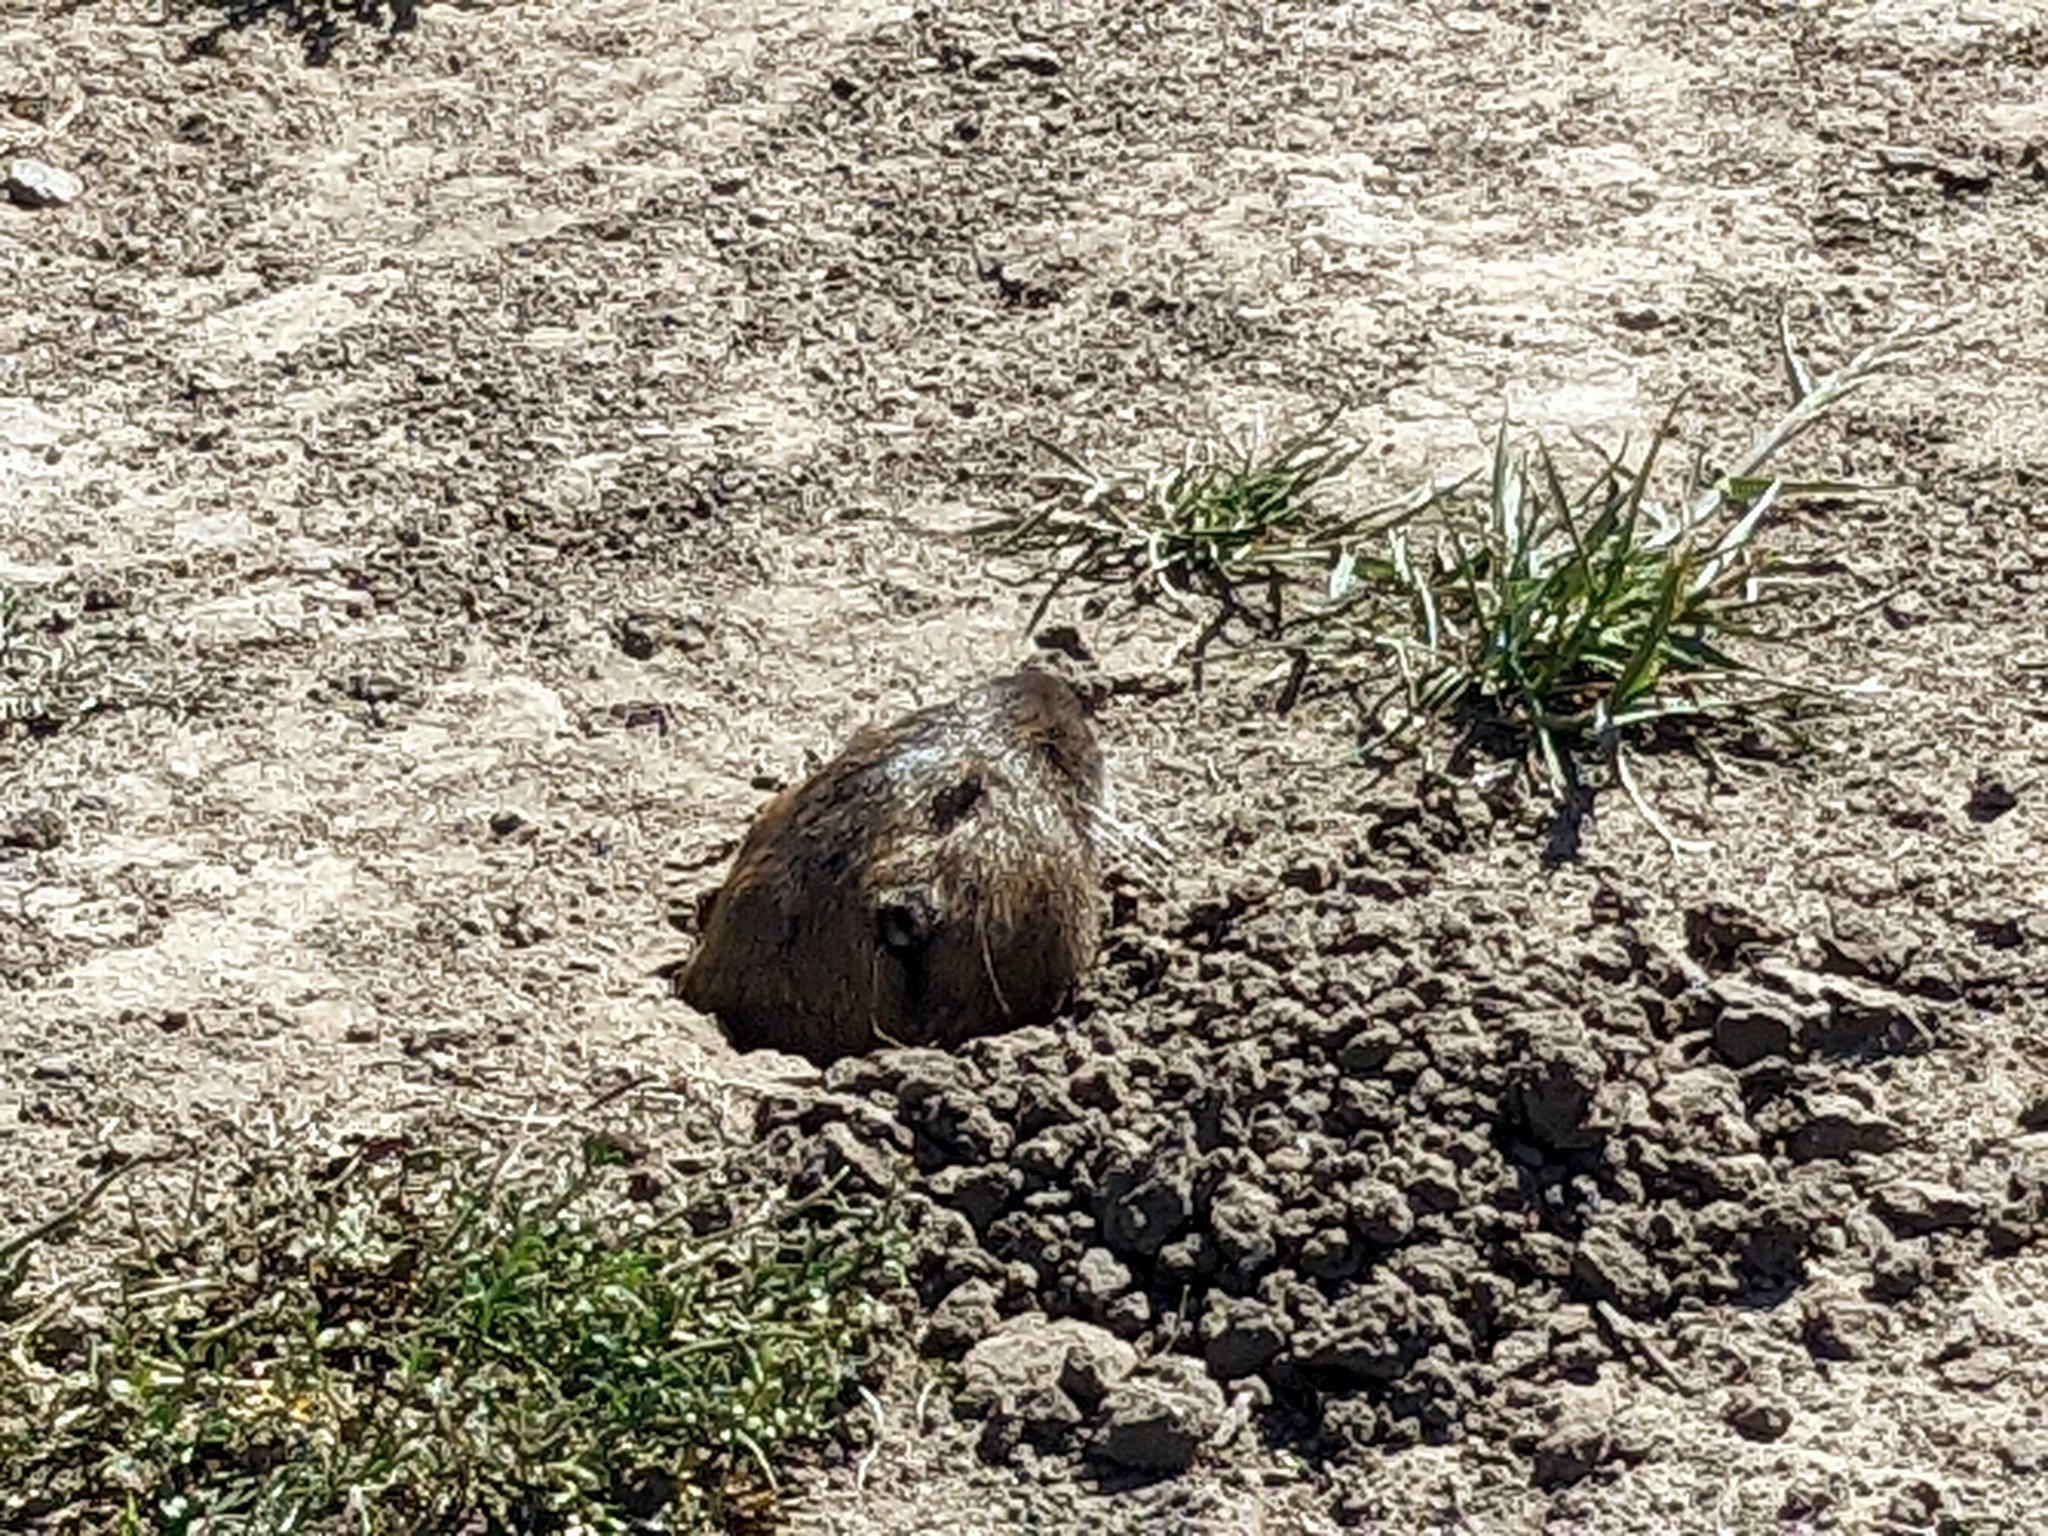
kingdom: Animalia
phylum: Chordata
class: Mammalia
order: Rodentia
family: Geomyidae
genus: Thomomys
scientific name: Thomomys bottae
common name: Botta's pocket gopher
